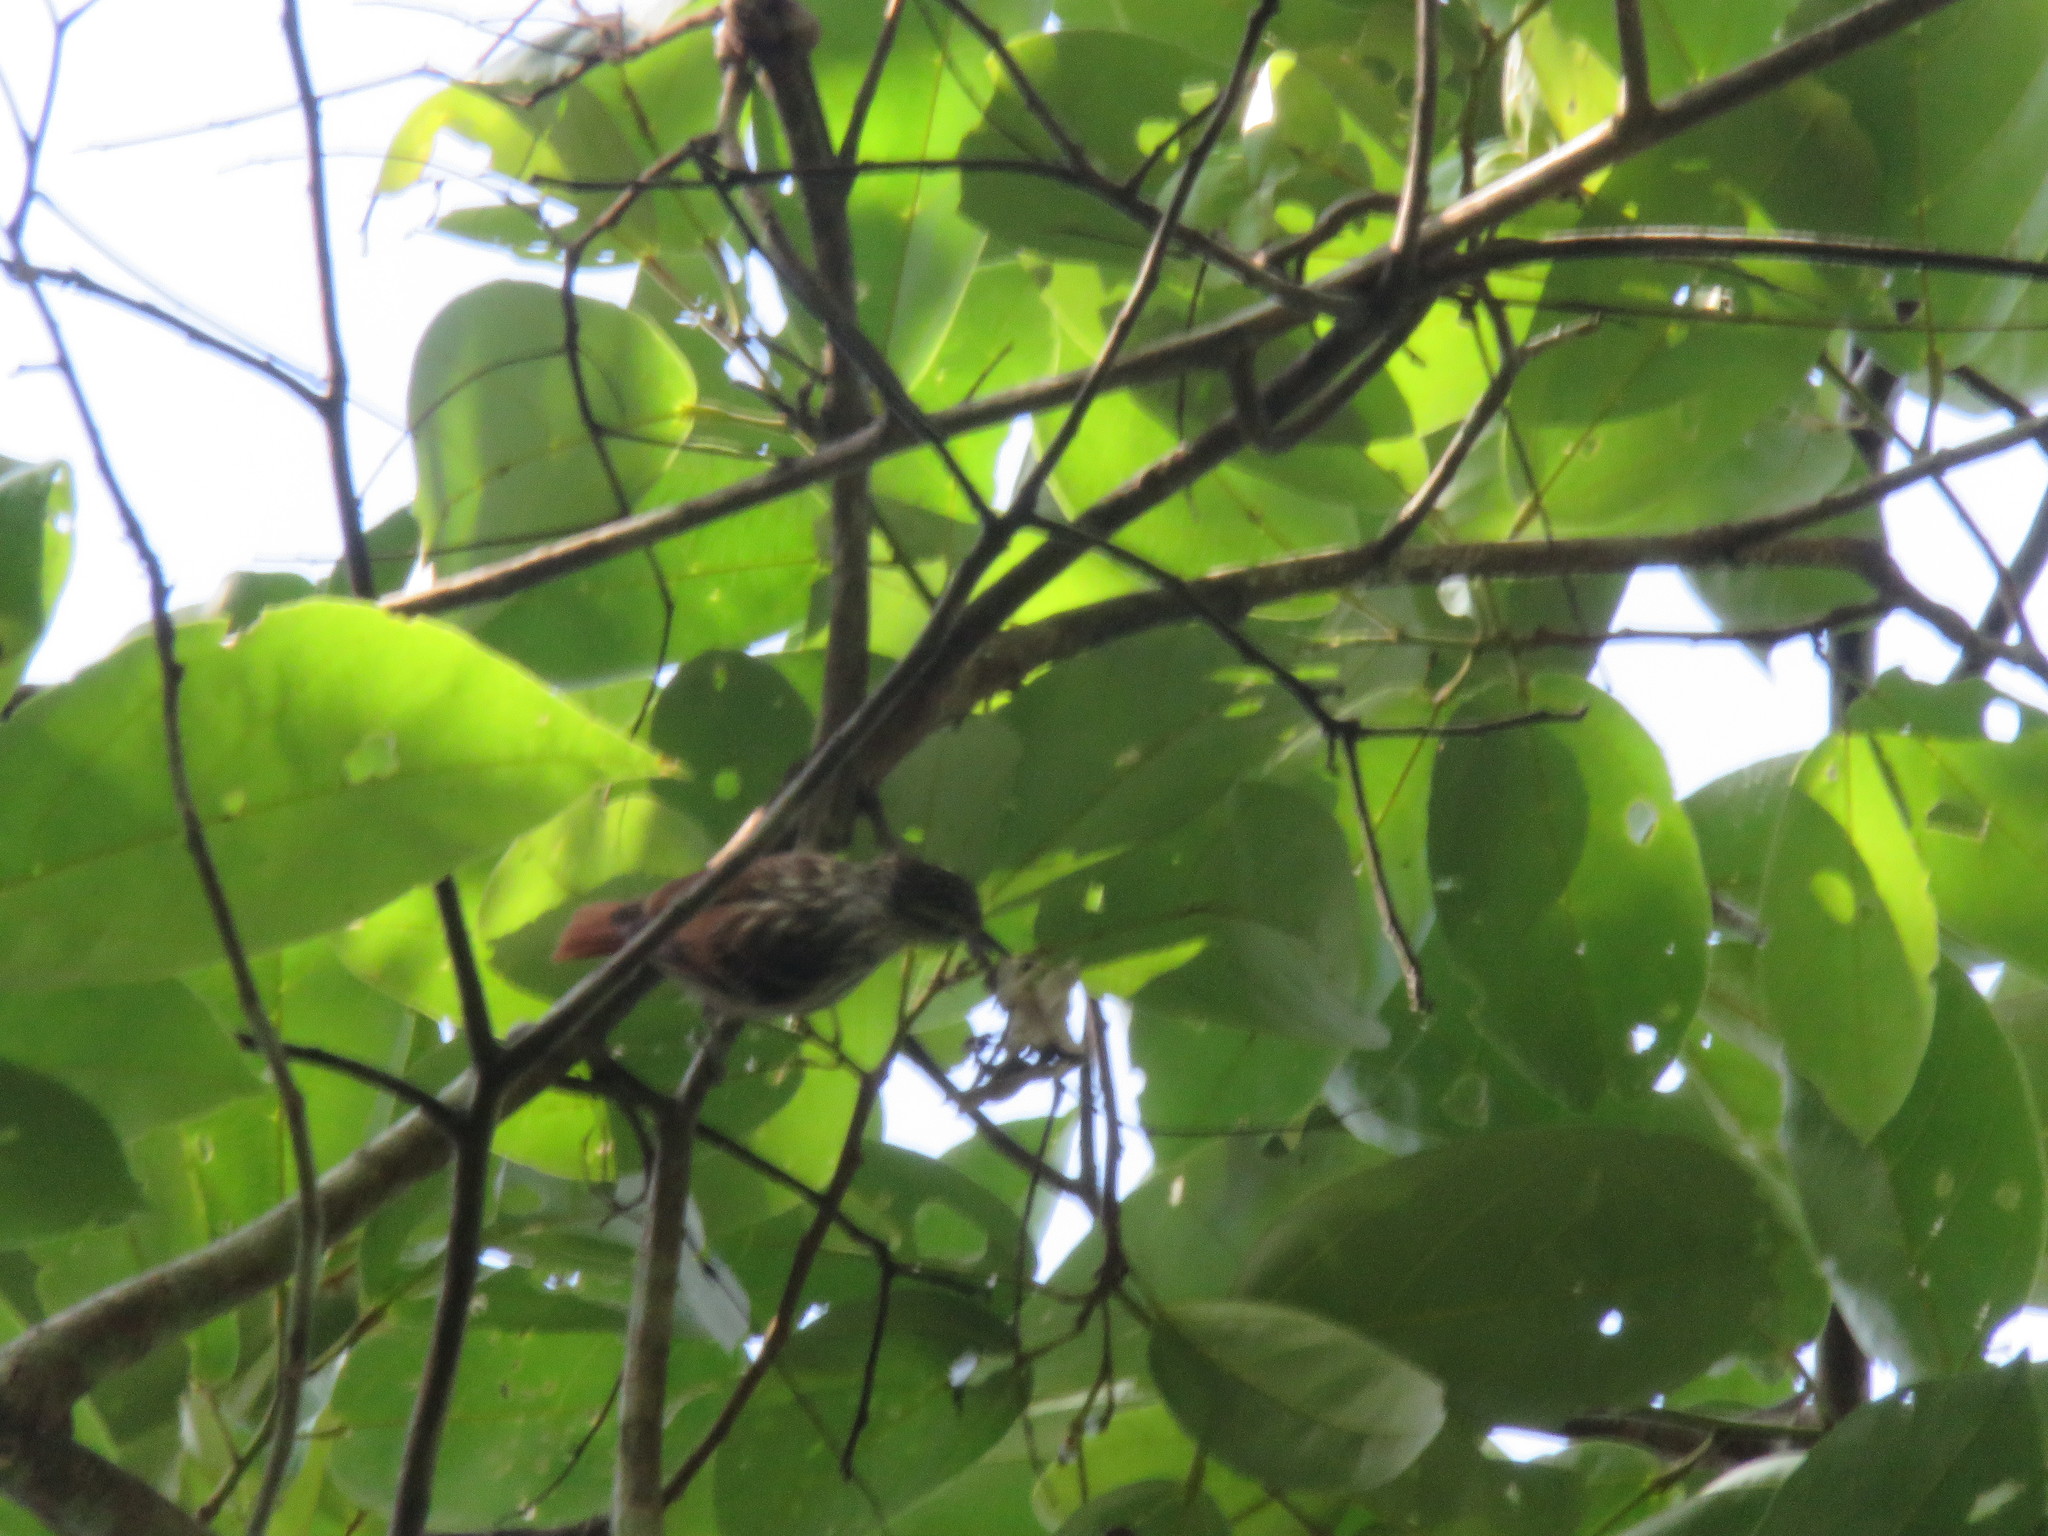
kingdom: Animalia
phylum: Chordata
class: Aves
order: Passeriformes
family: Furnariidae
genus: Xenops
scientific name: Xenops milleri
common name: Rufous-tailed xenops
